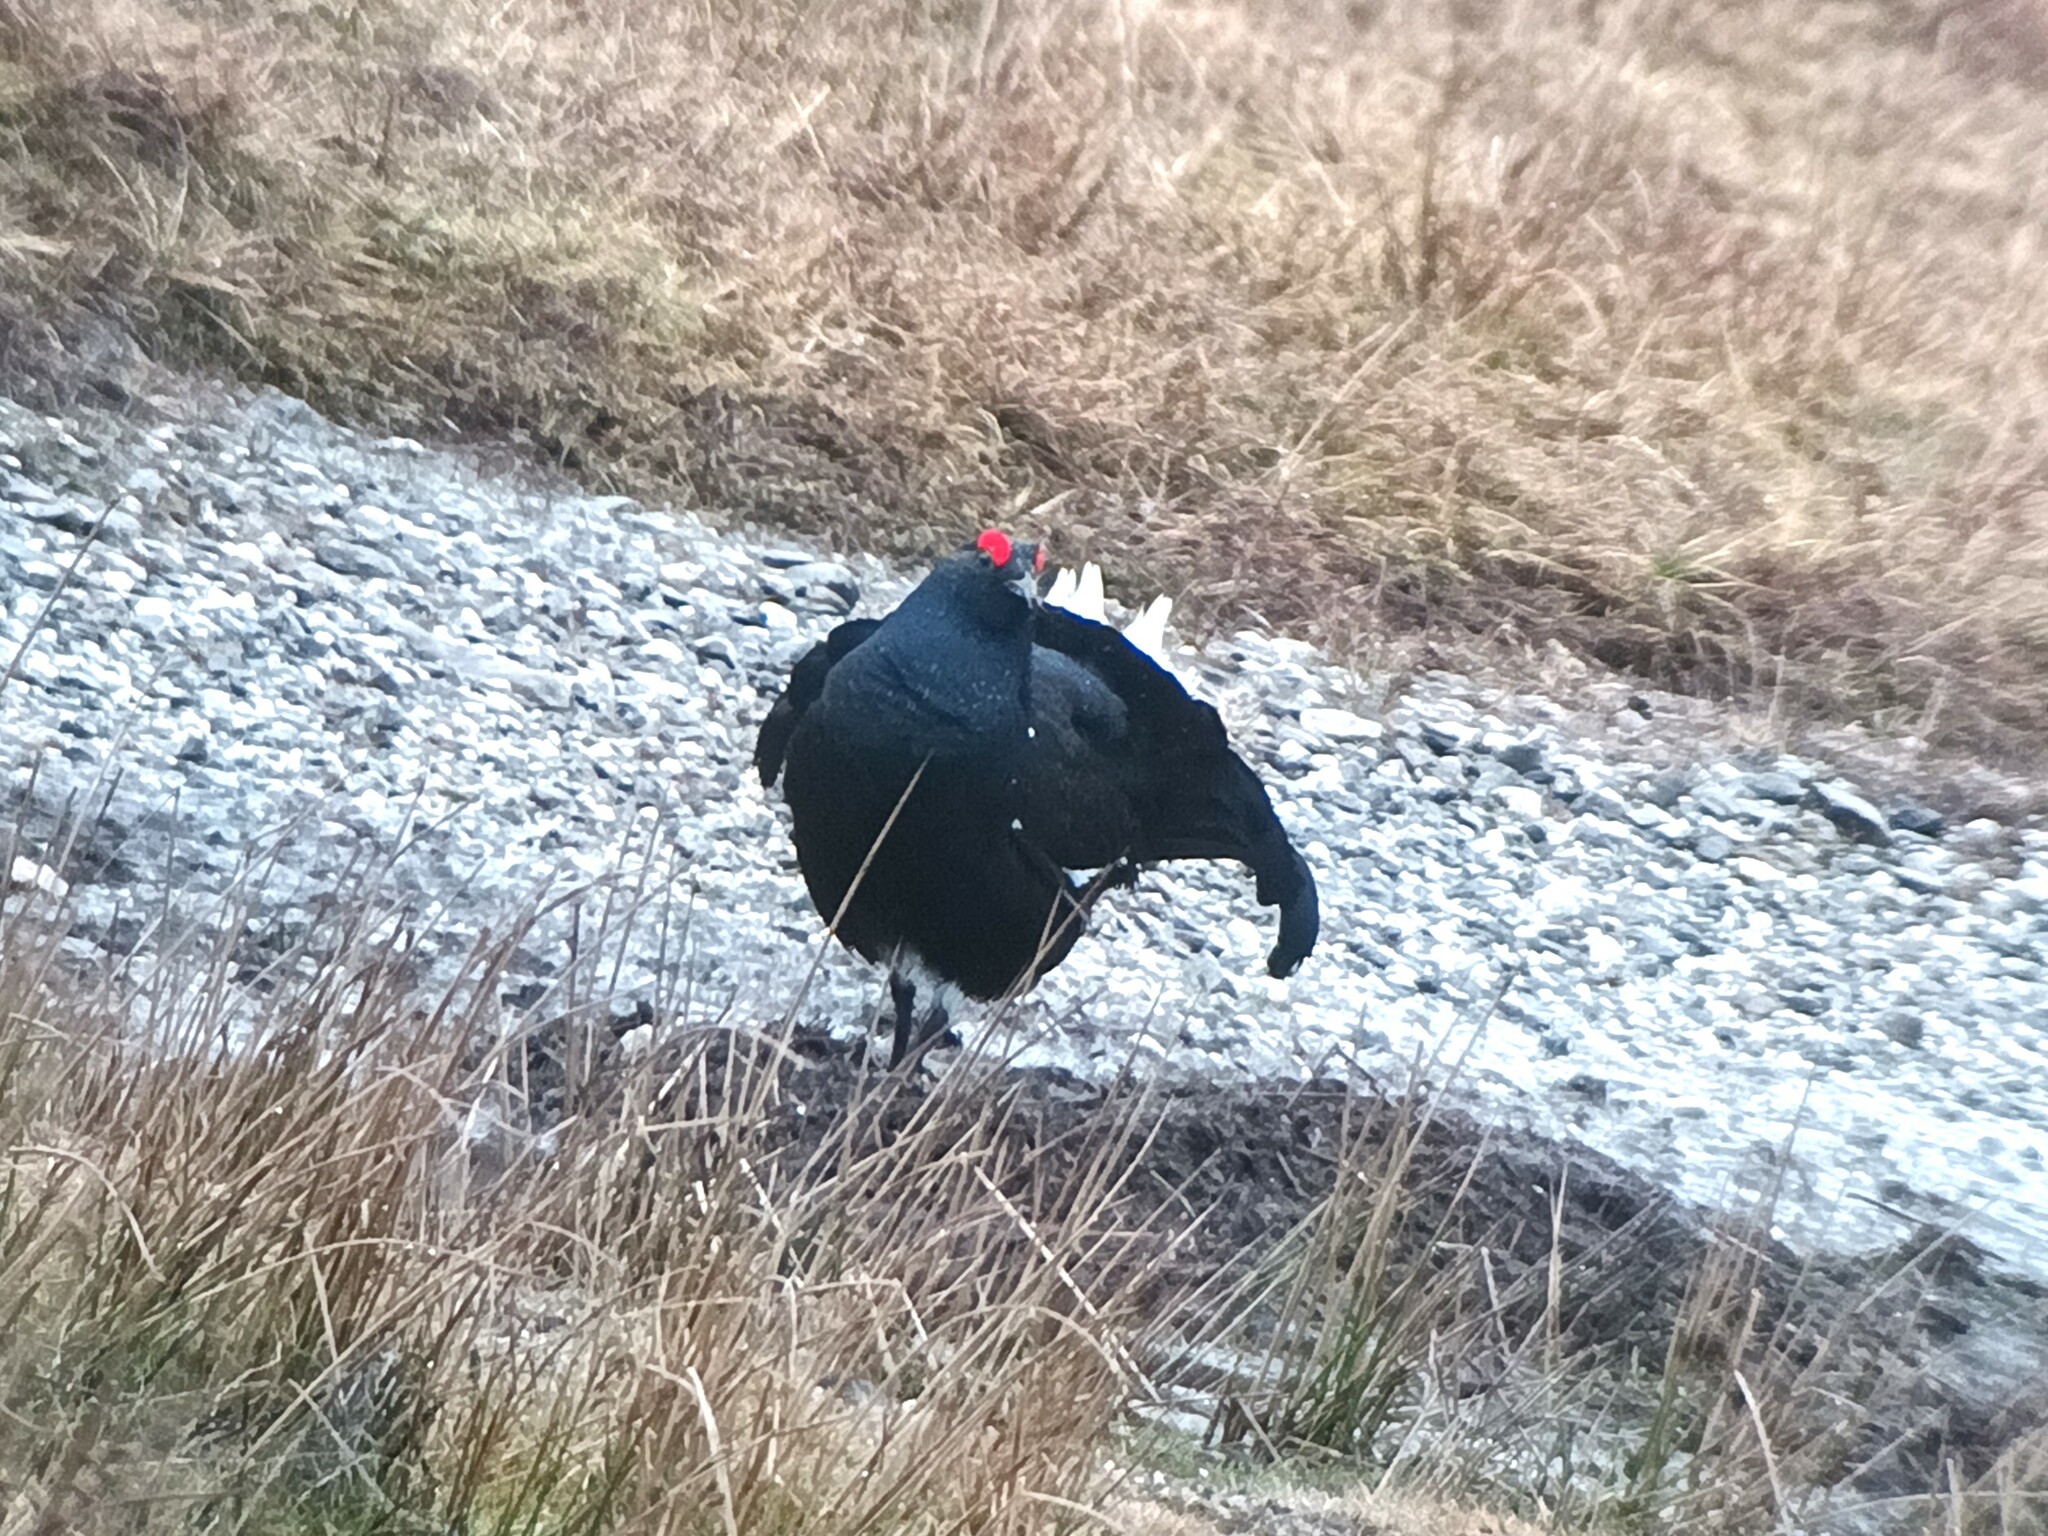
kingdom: Animalia
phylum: Chordata
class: Aves
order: Galliformes
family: Phasianidae
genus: Lyrurus
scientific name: Lyrurus tetrix
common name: Black grouse
